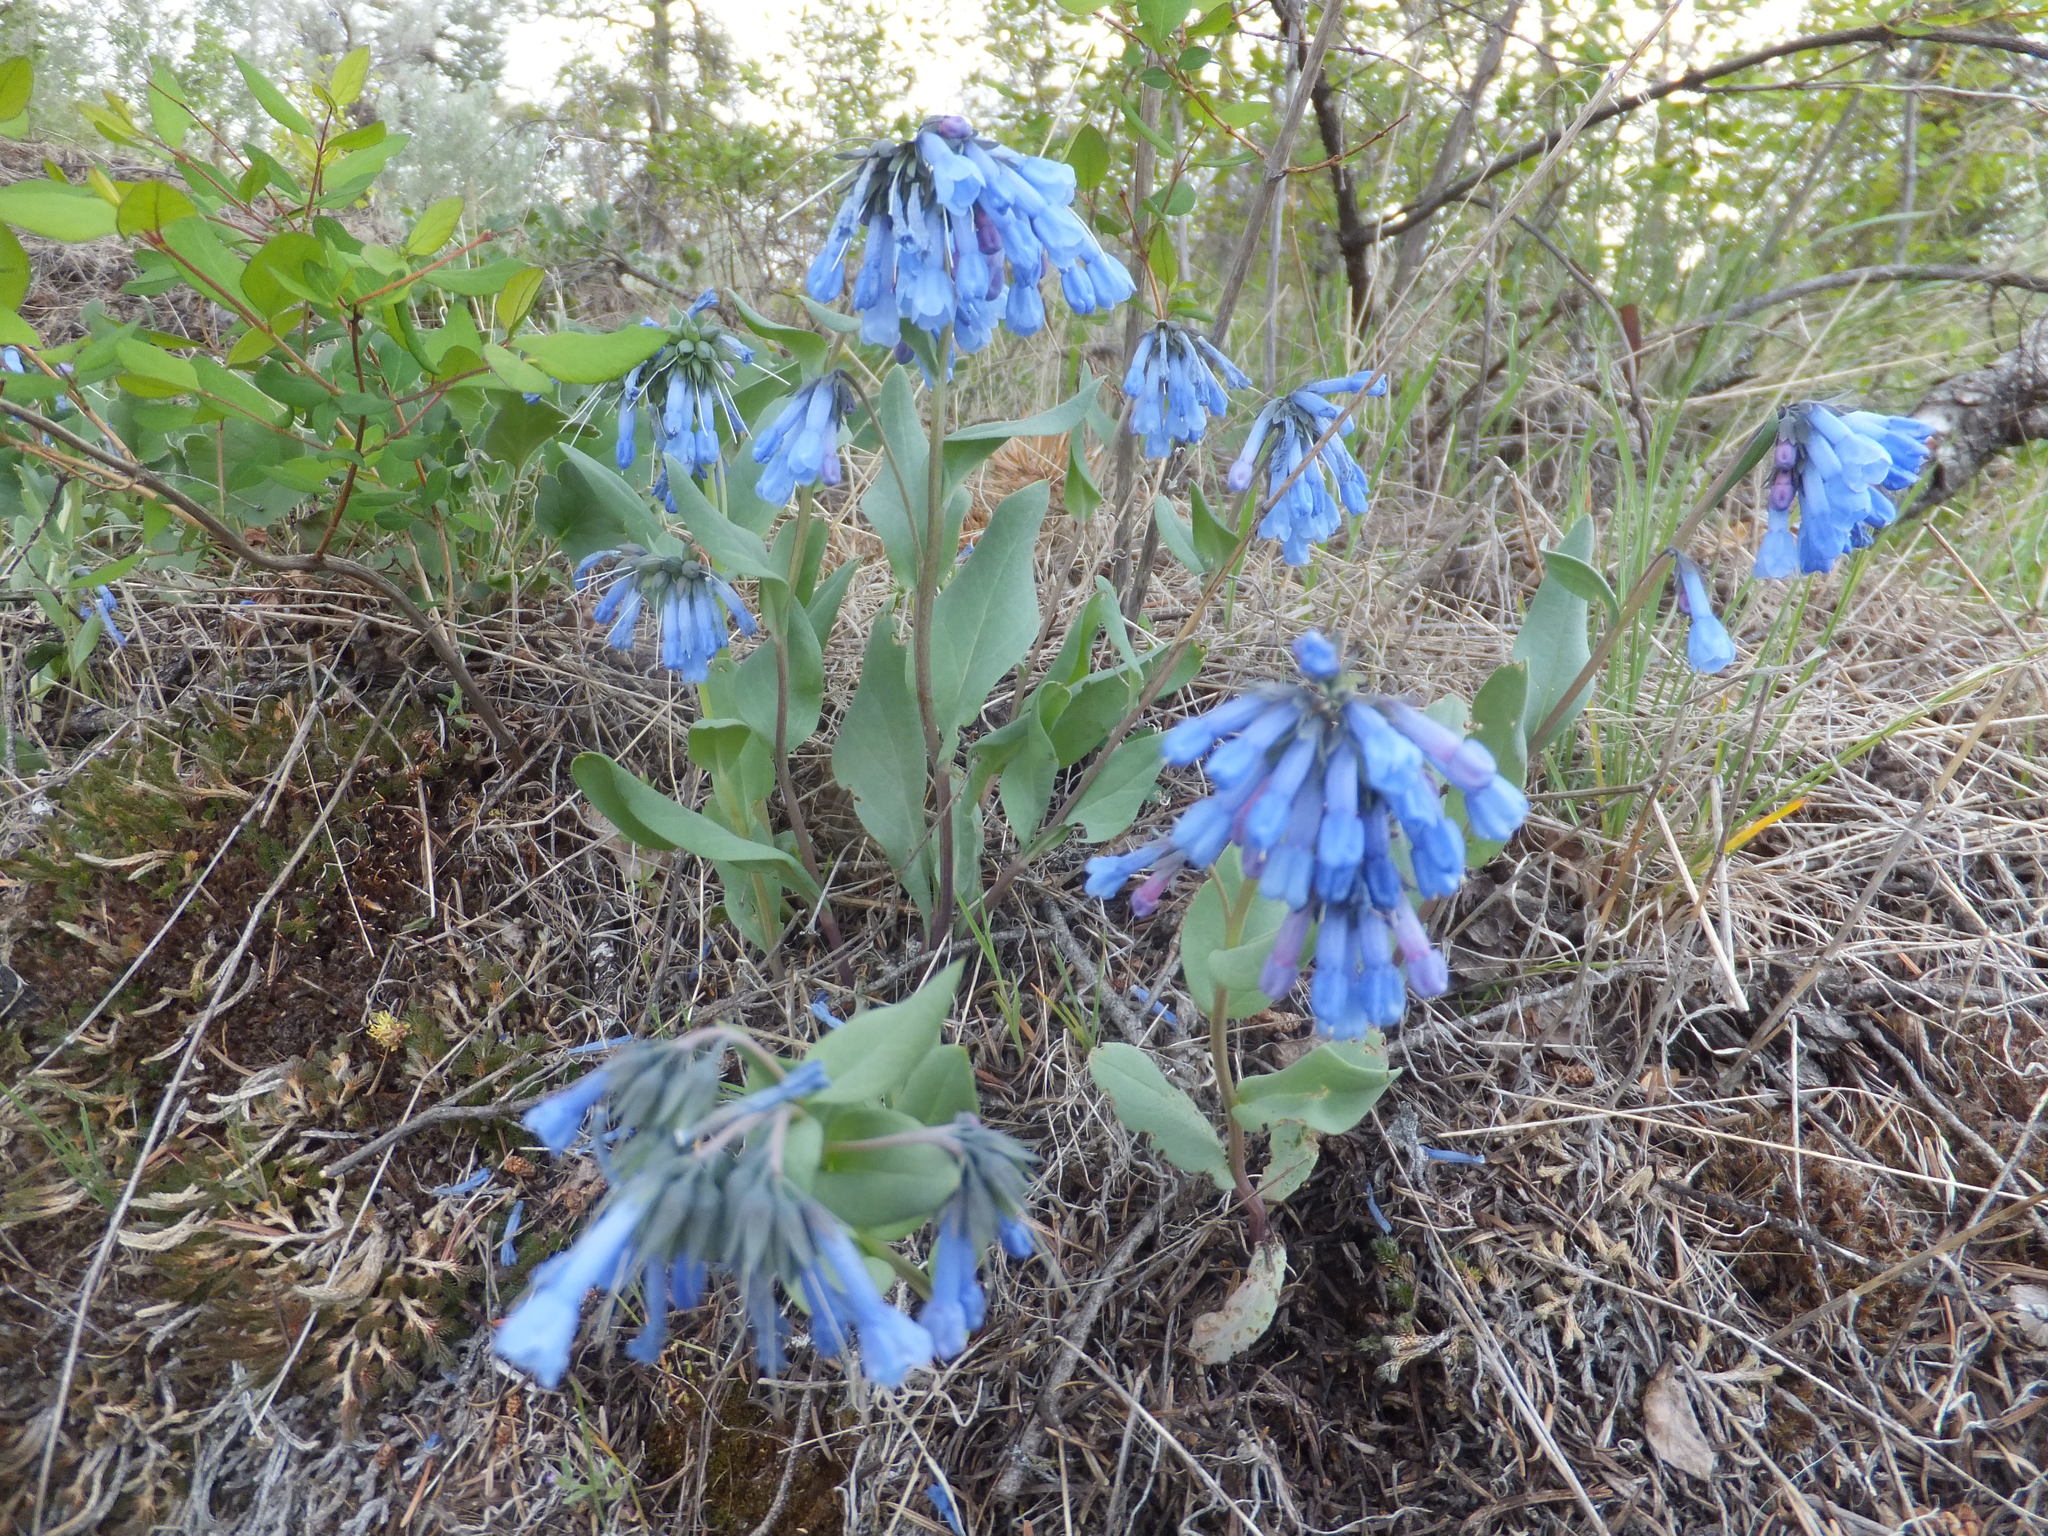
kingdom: Plantae
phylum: Tracheophyta
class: Magnoliopsida
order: Boraginales
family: Boraginaceae
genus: Mertensia
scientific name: Mertensia longiflora
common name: Large-flowered bluebells
